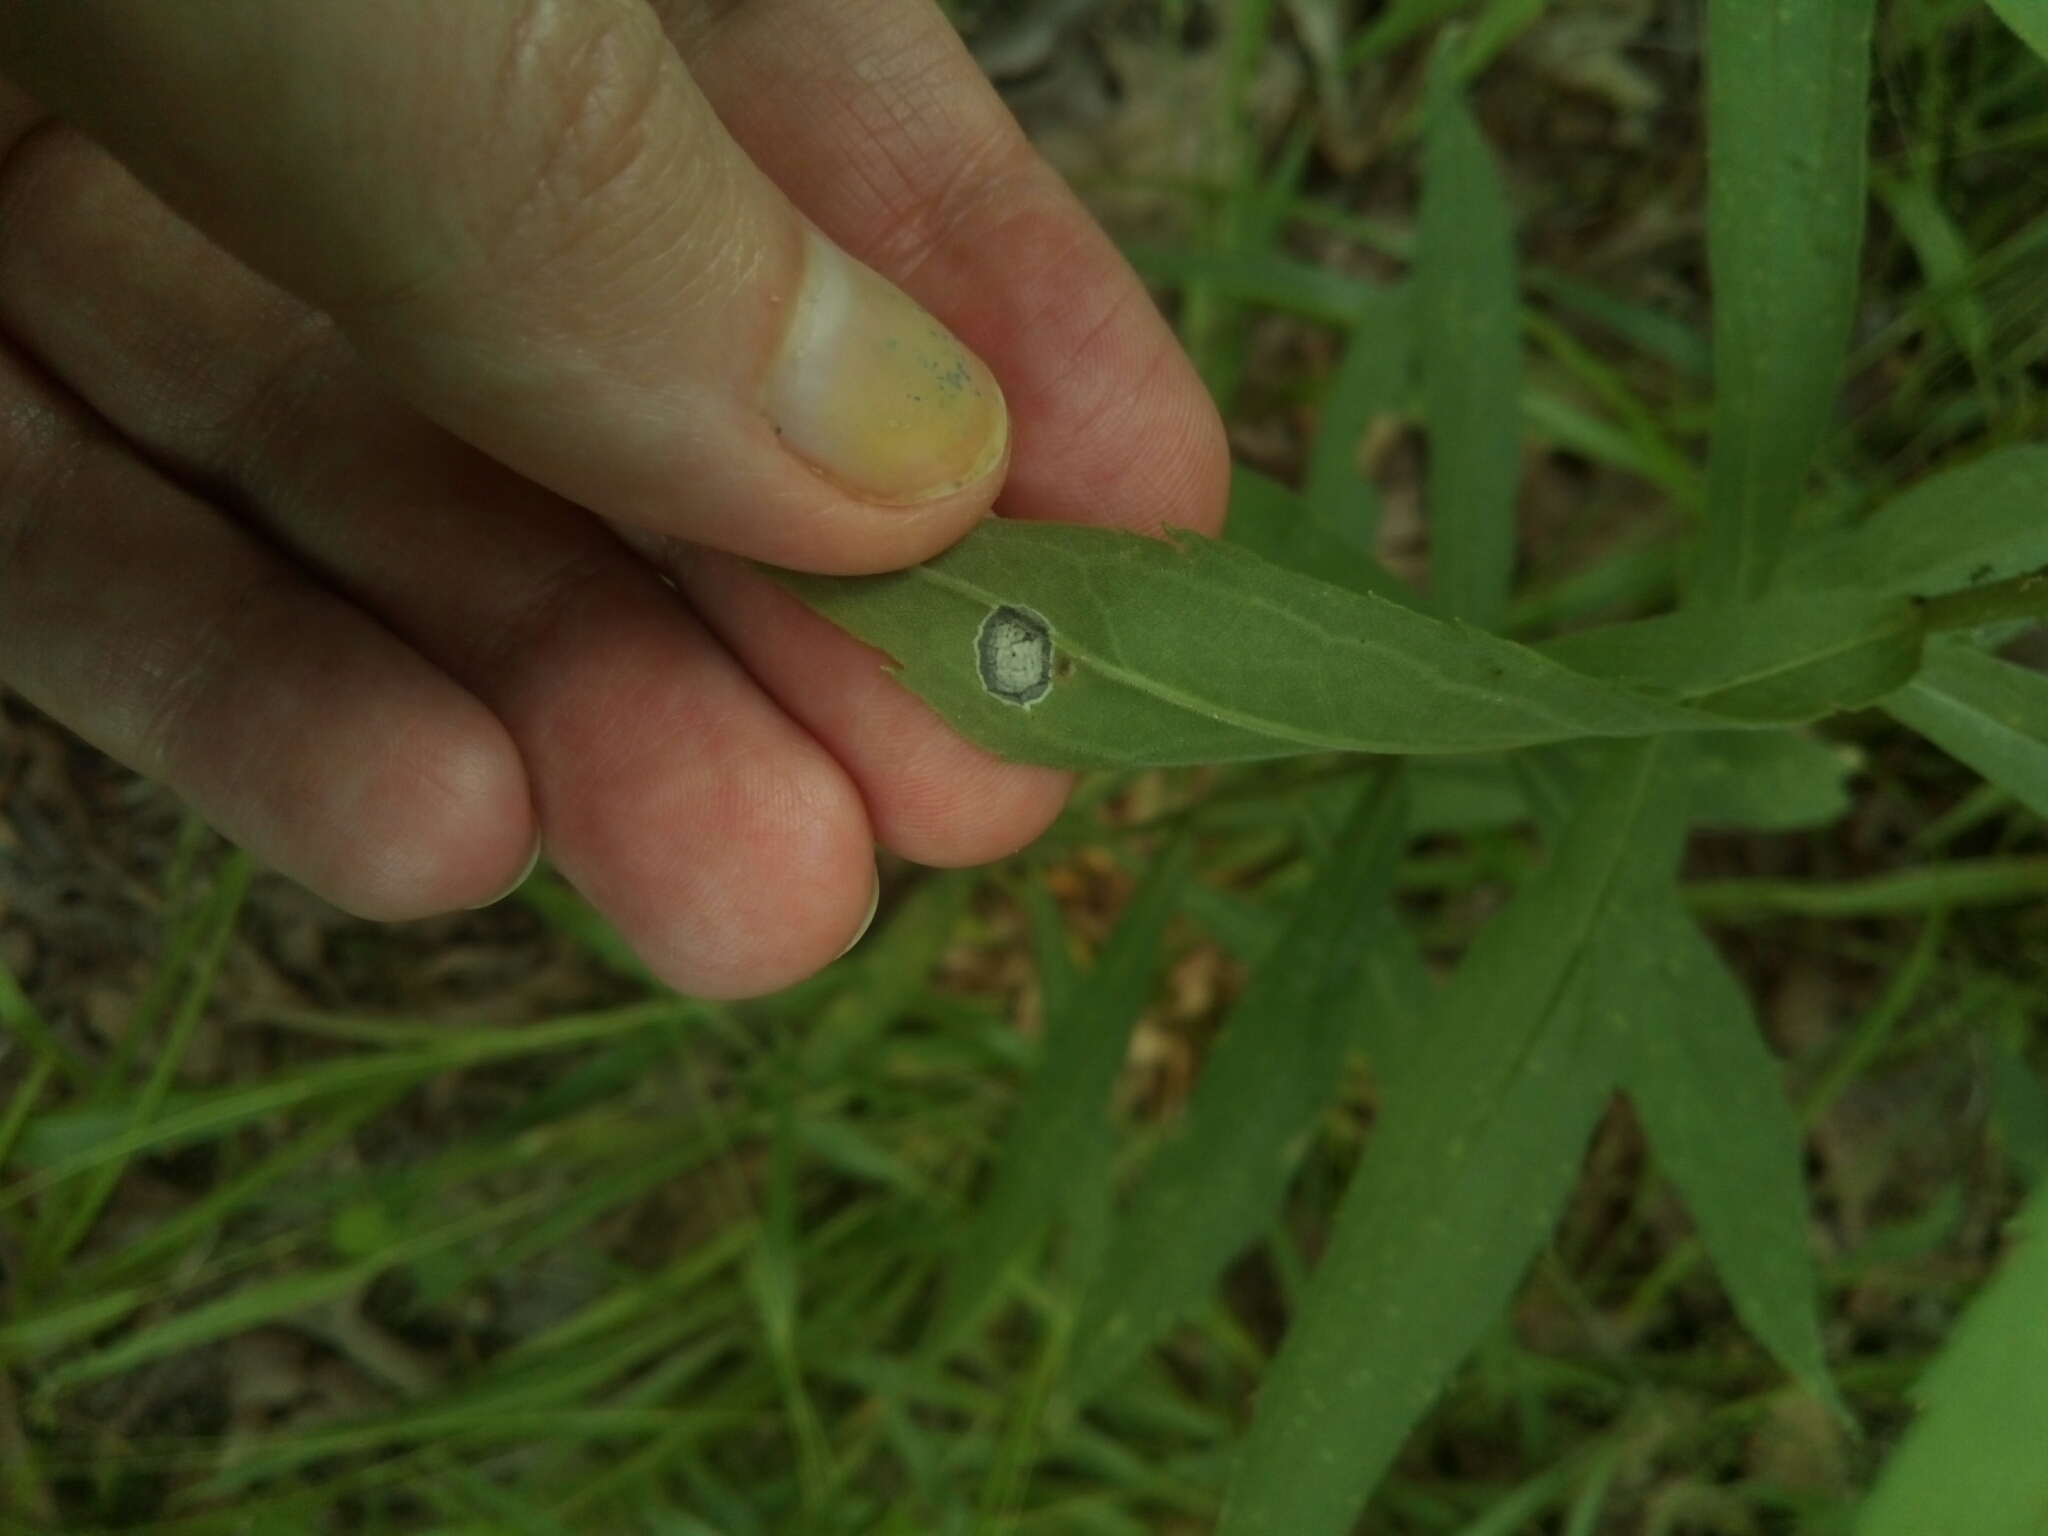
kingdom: Animalia
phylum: Arthropoda
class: Insecta
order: Diptera
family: Cecidomyiidae
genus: Asteromyia
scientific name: Asteromyia carbonifera
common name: Carbonifera goldenrod gall midge
